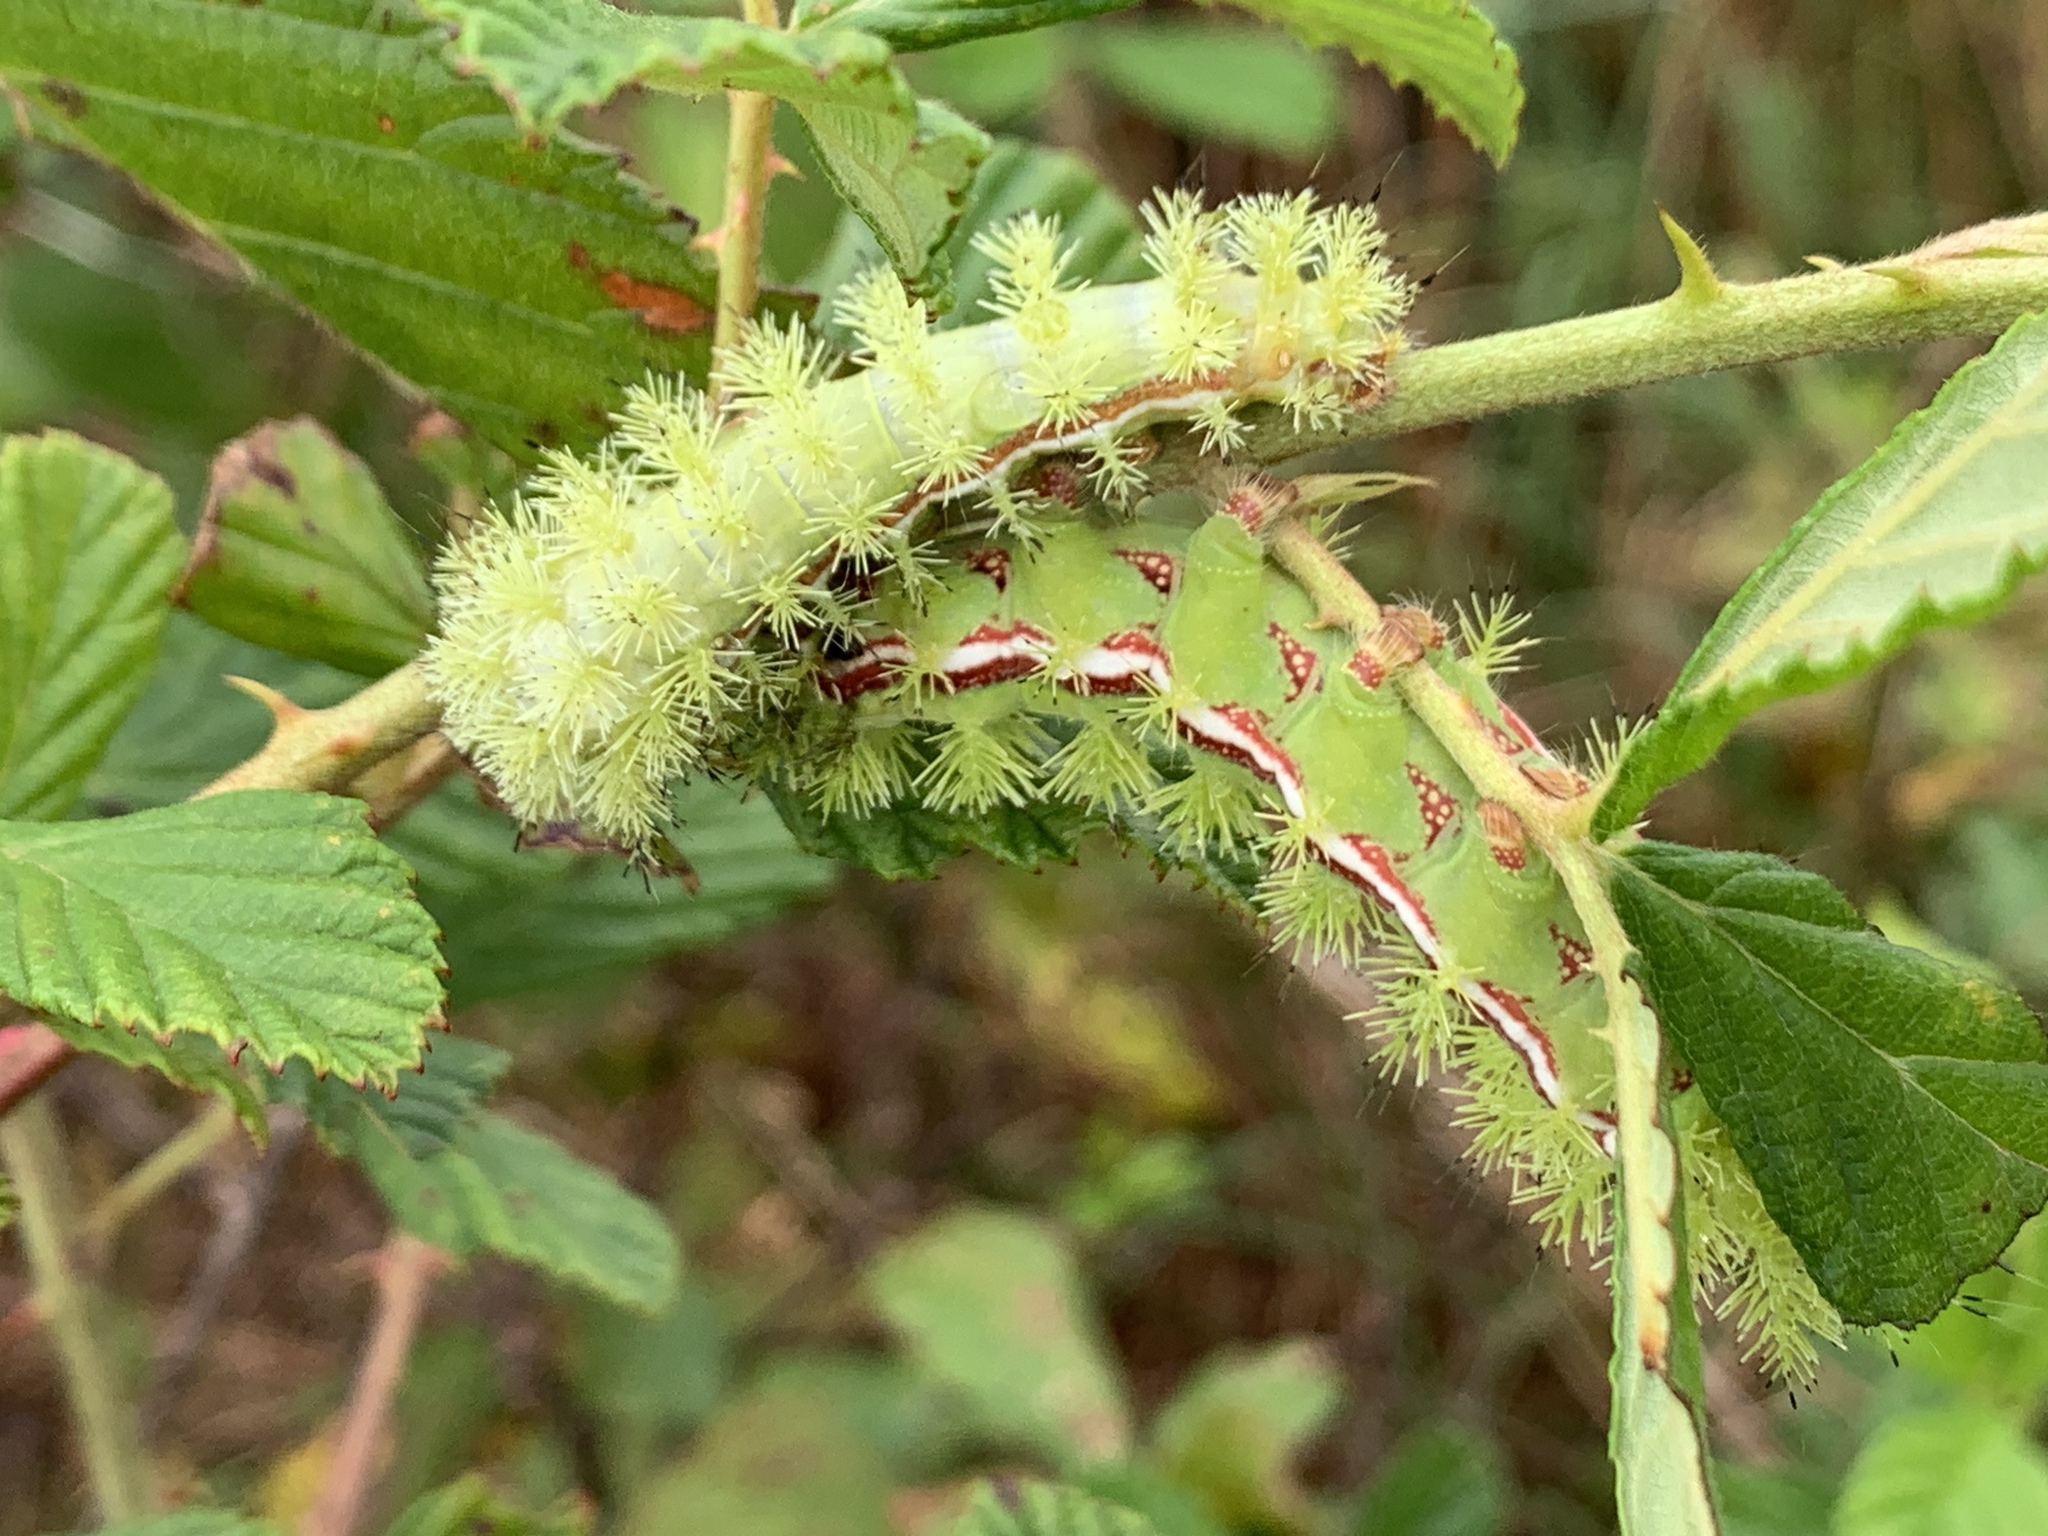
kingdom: Animalia
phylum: Arthropoda
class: Insecta
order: Lepidoptera
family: Saturniidae
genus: Automeris
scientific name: Automeris io
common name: Io moth
